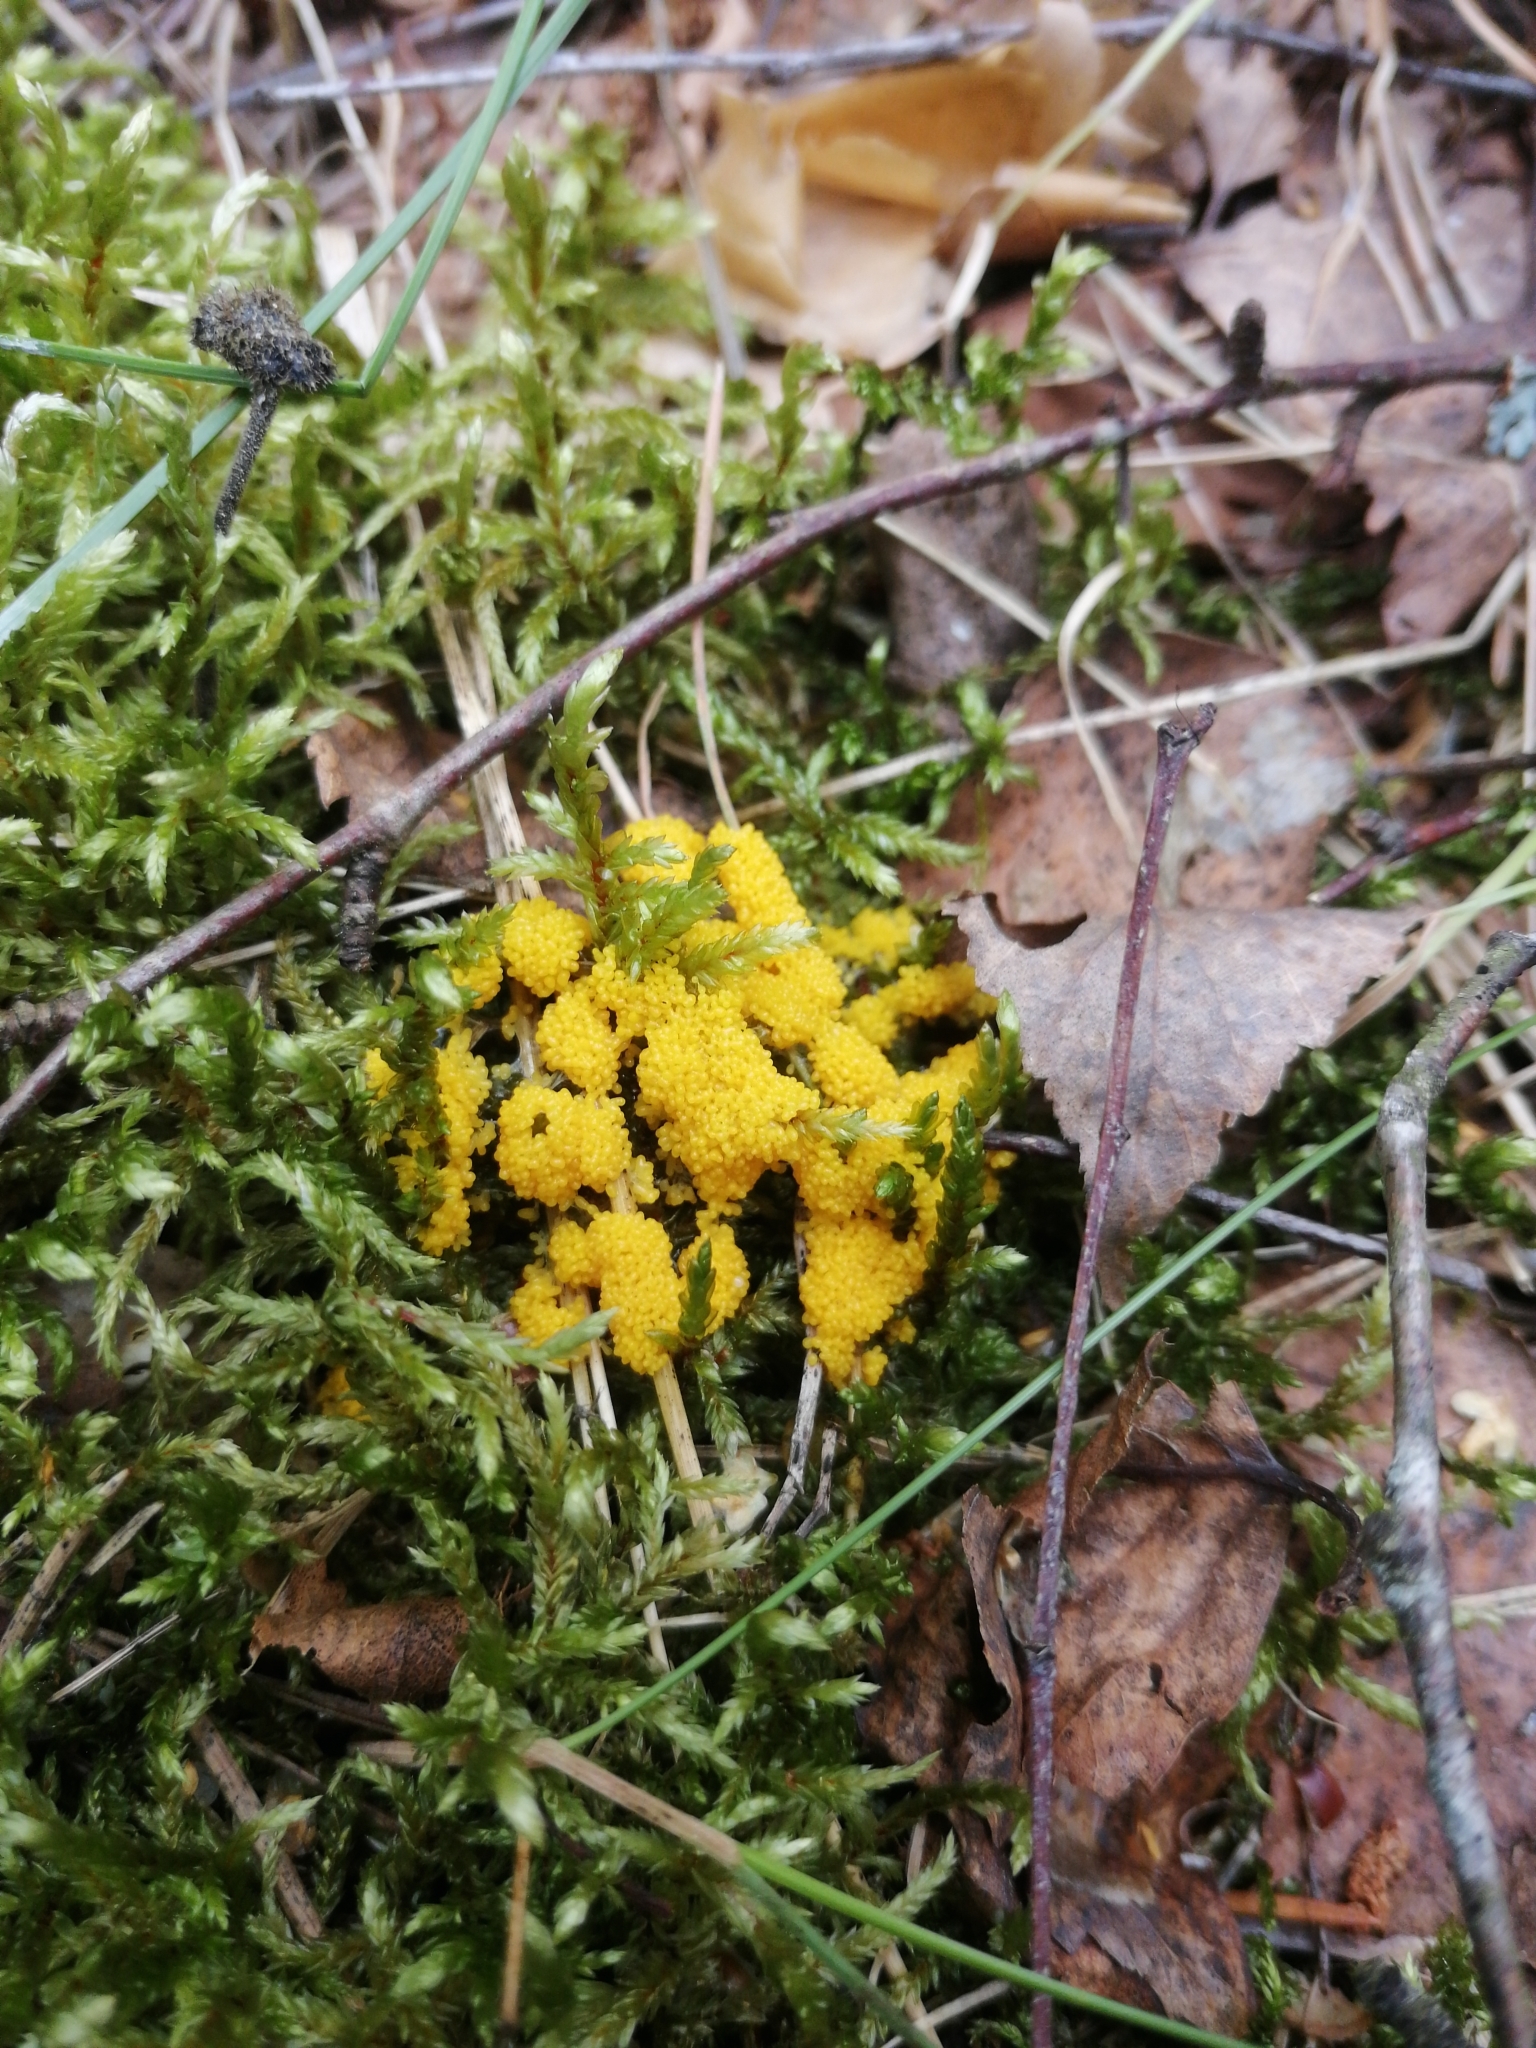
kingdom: Protozoa
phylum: Mycetozoa
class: Myxomycetes
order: Physarales
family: Physaraceae
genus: Fuligo
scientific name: Fuligo septica
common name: Dog vomit slime mold
